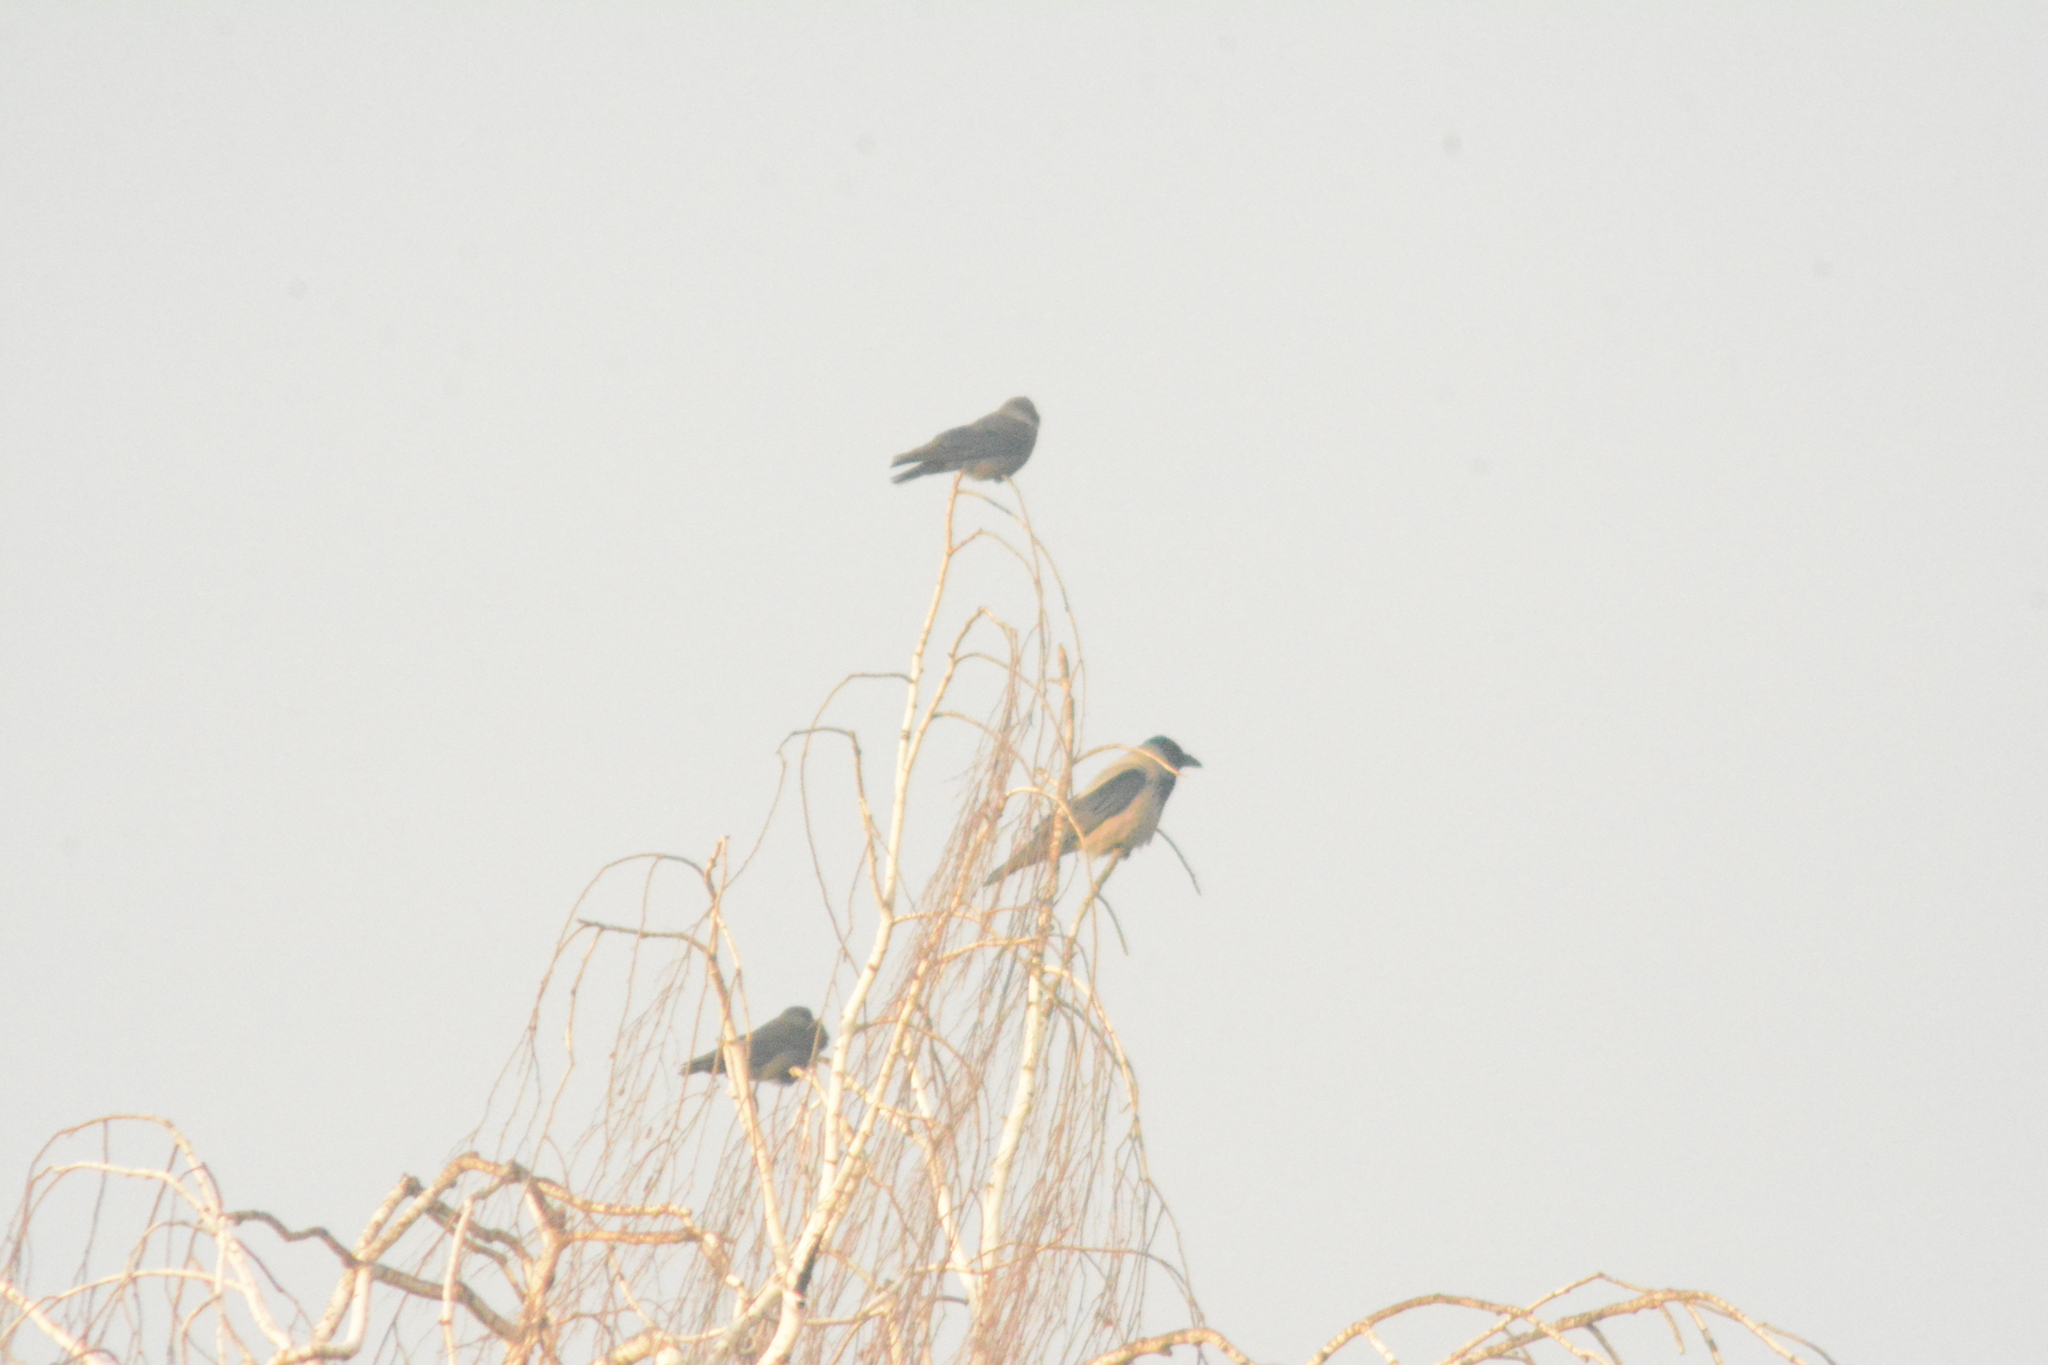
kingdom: Animalia
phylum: Chordata
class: Aves
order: Passeriformes
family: Corvidae
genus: Coloeus
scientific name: Coloeus monedula
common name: Western jackdaw
